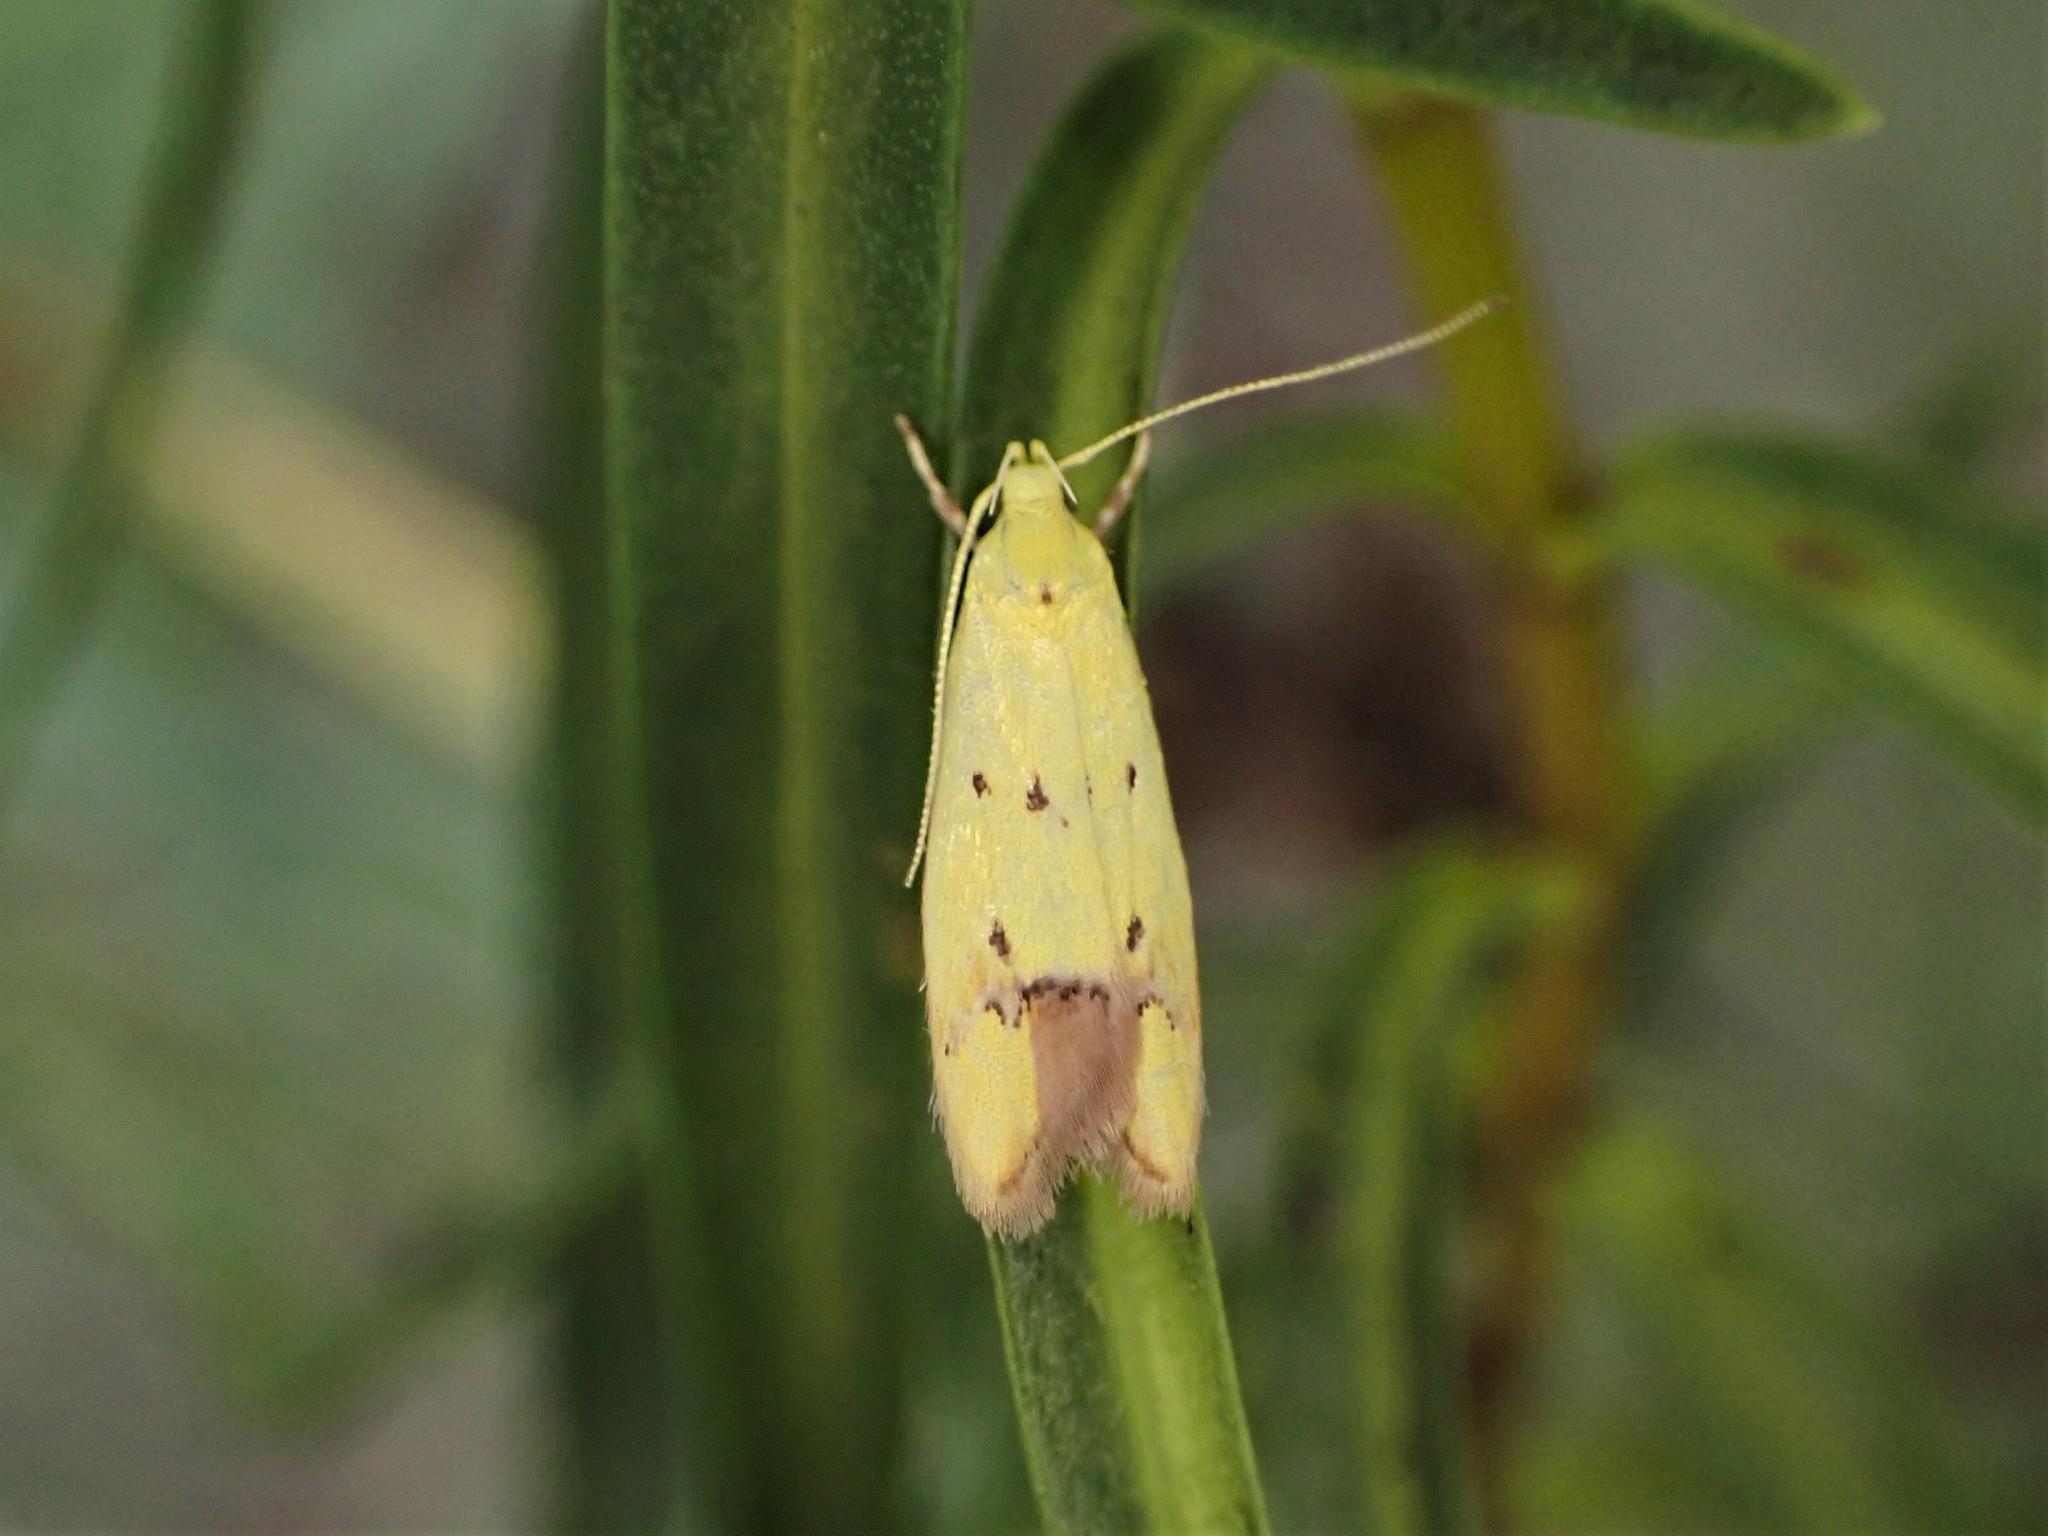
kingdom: Animalia
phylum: Arthropoda
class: Insecta
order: Lepidoptera
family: Oecophoridae
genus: Gymnobathra
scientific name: Gymnobathra flavidella
